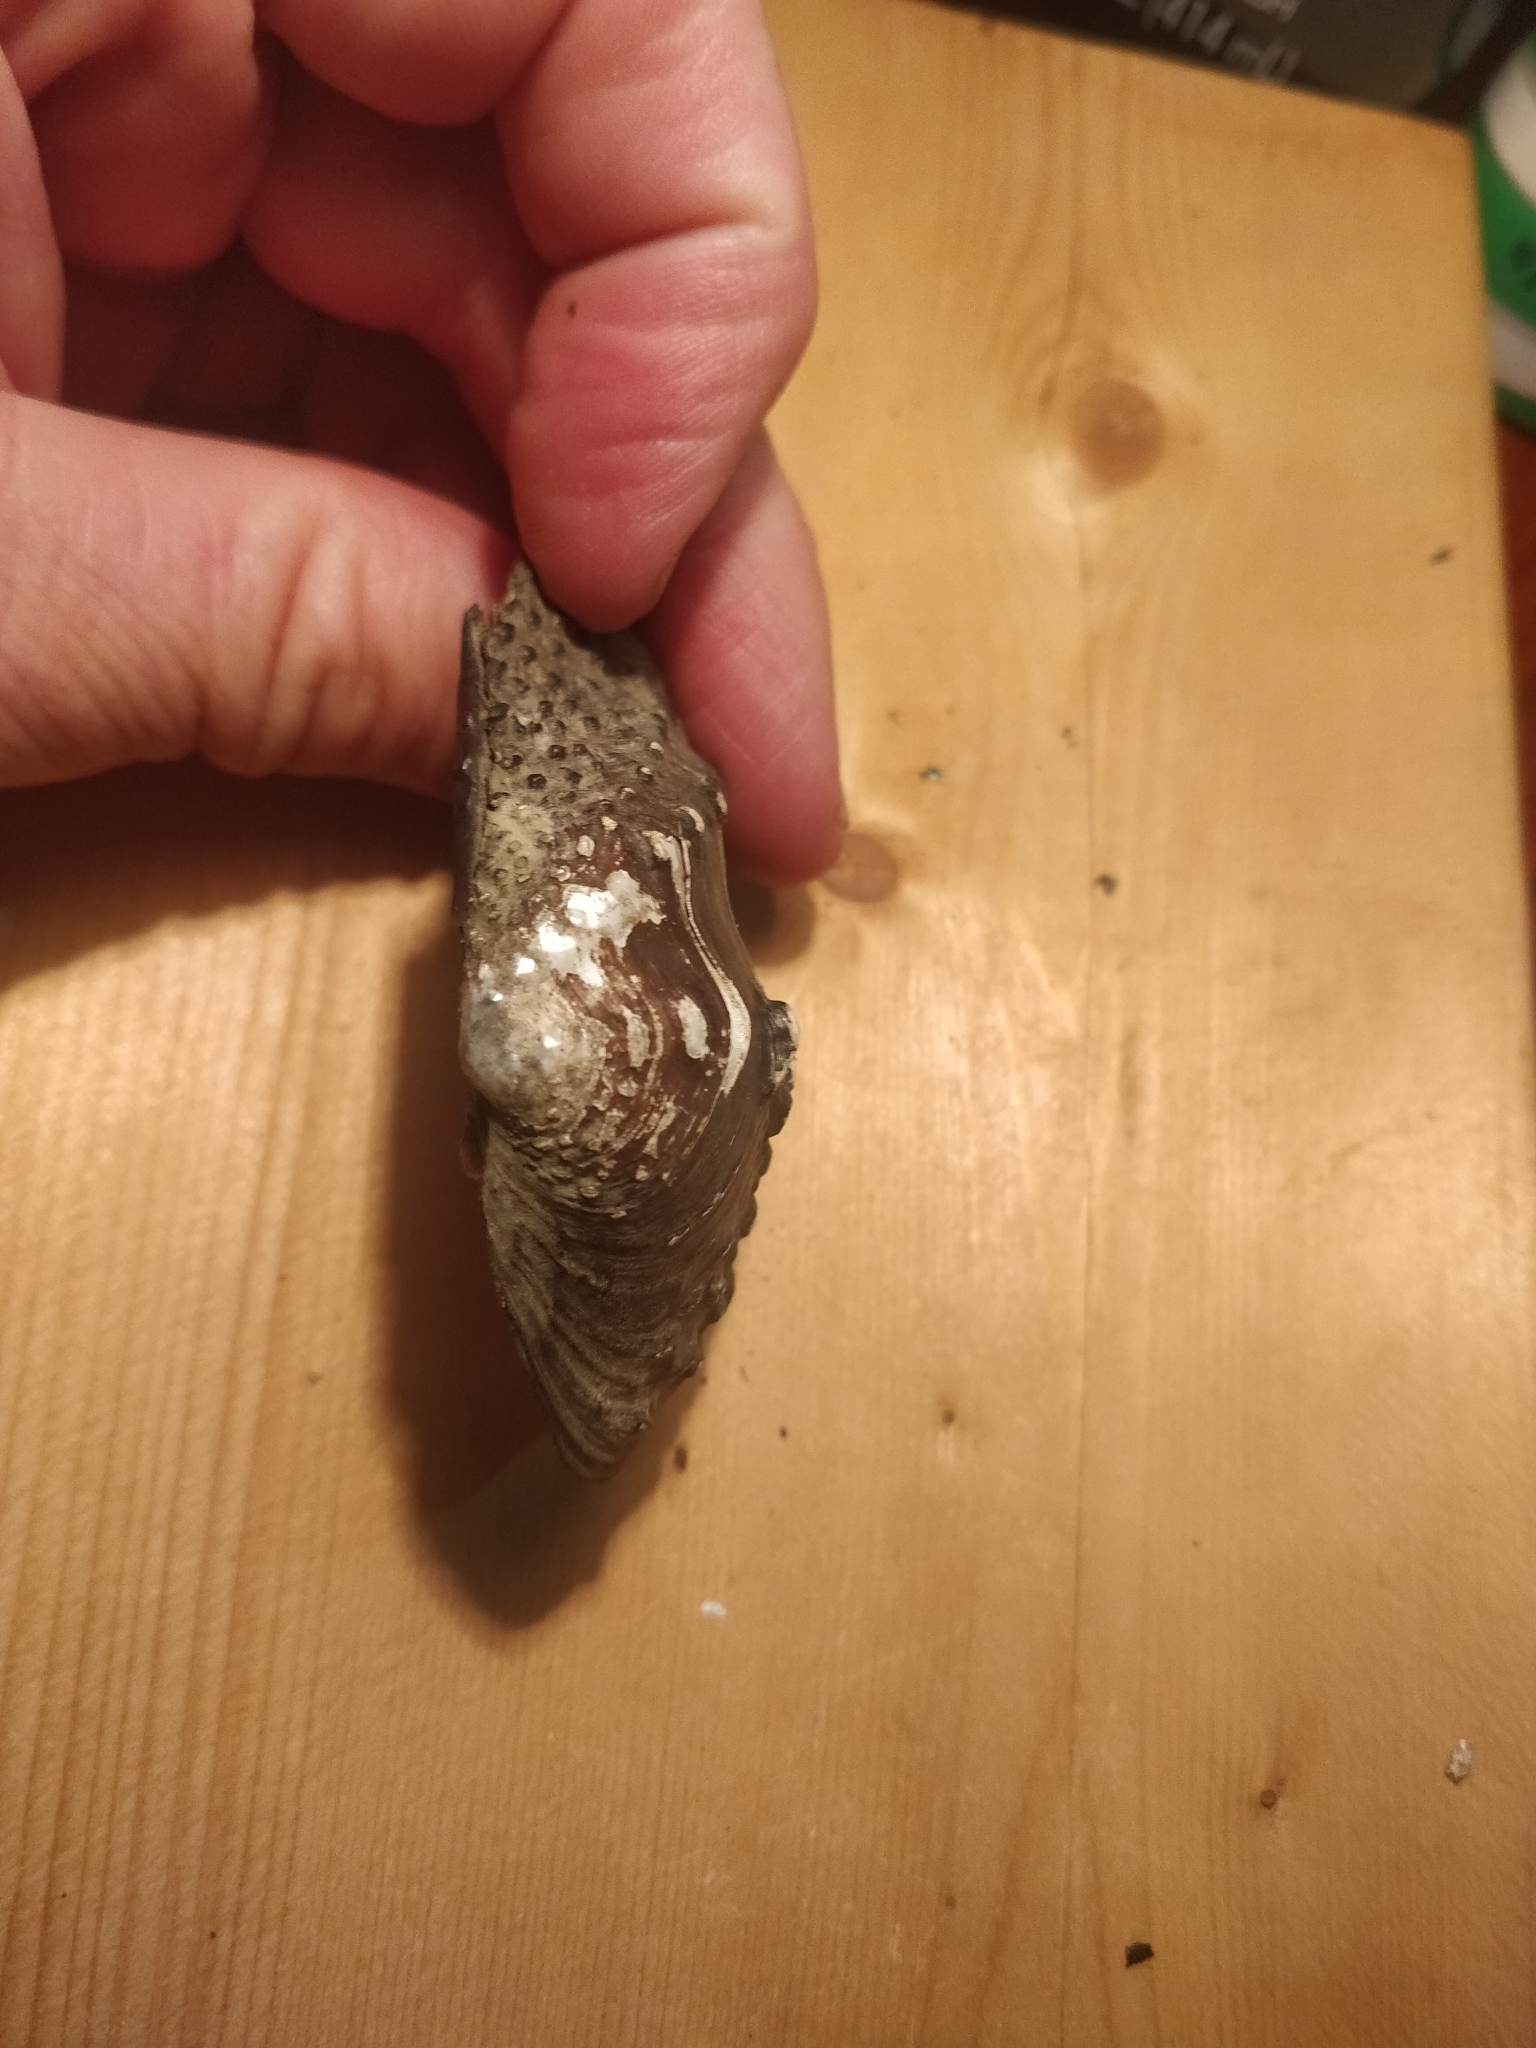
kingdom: Animalia
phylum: Mollusca
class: Bivalvia
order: Unionida
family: Unionidae
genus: Tritogonia
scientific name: Tritogonia nobilis
